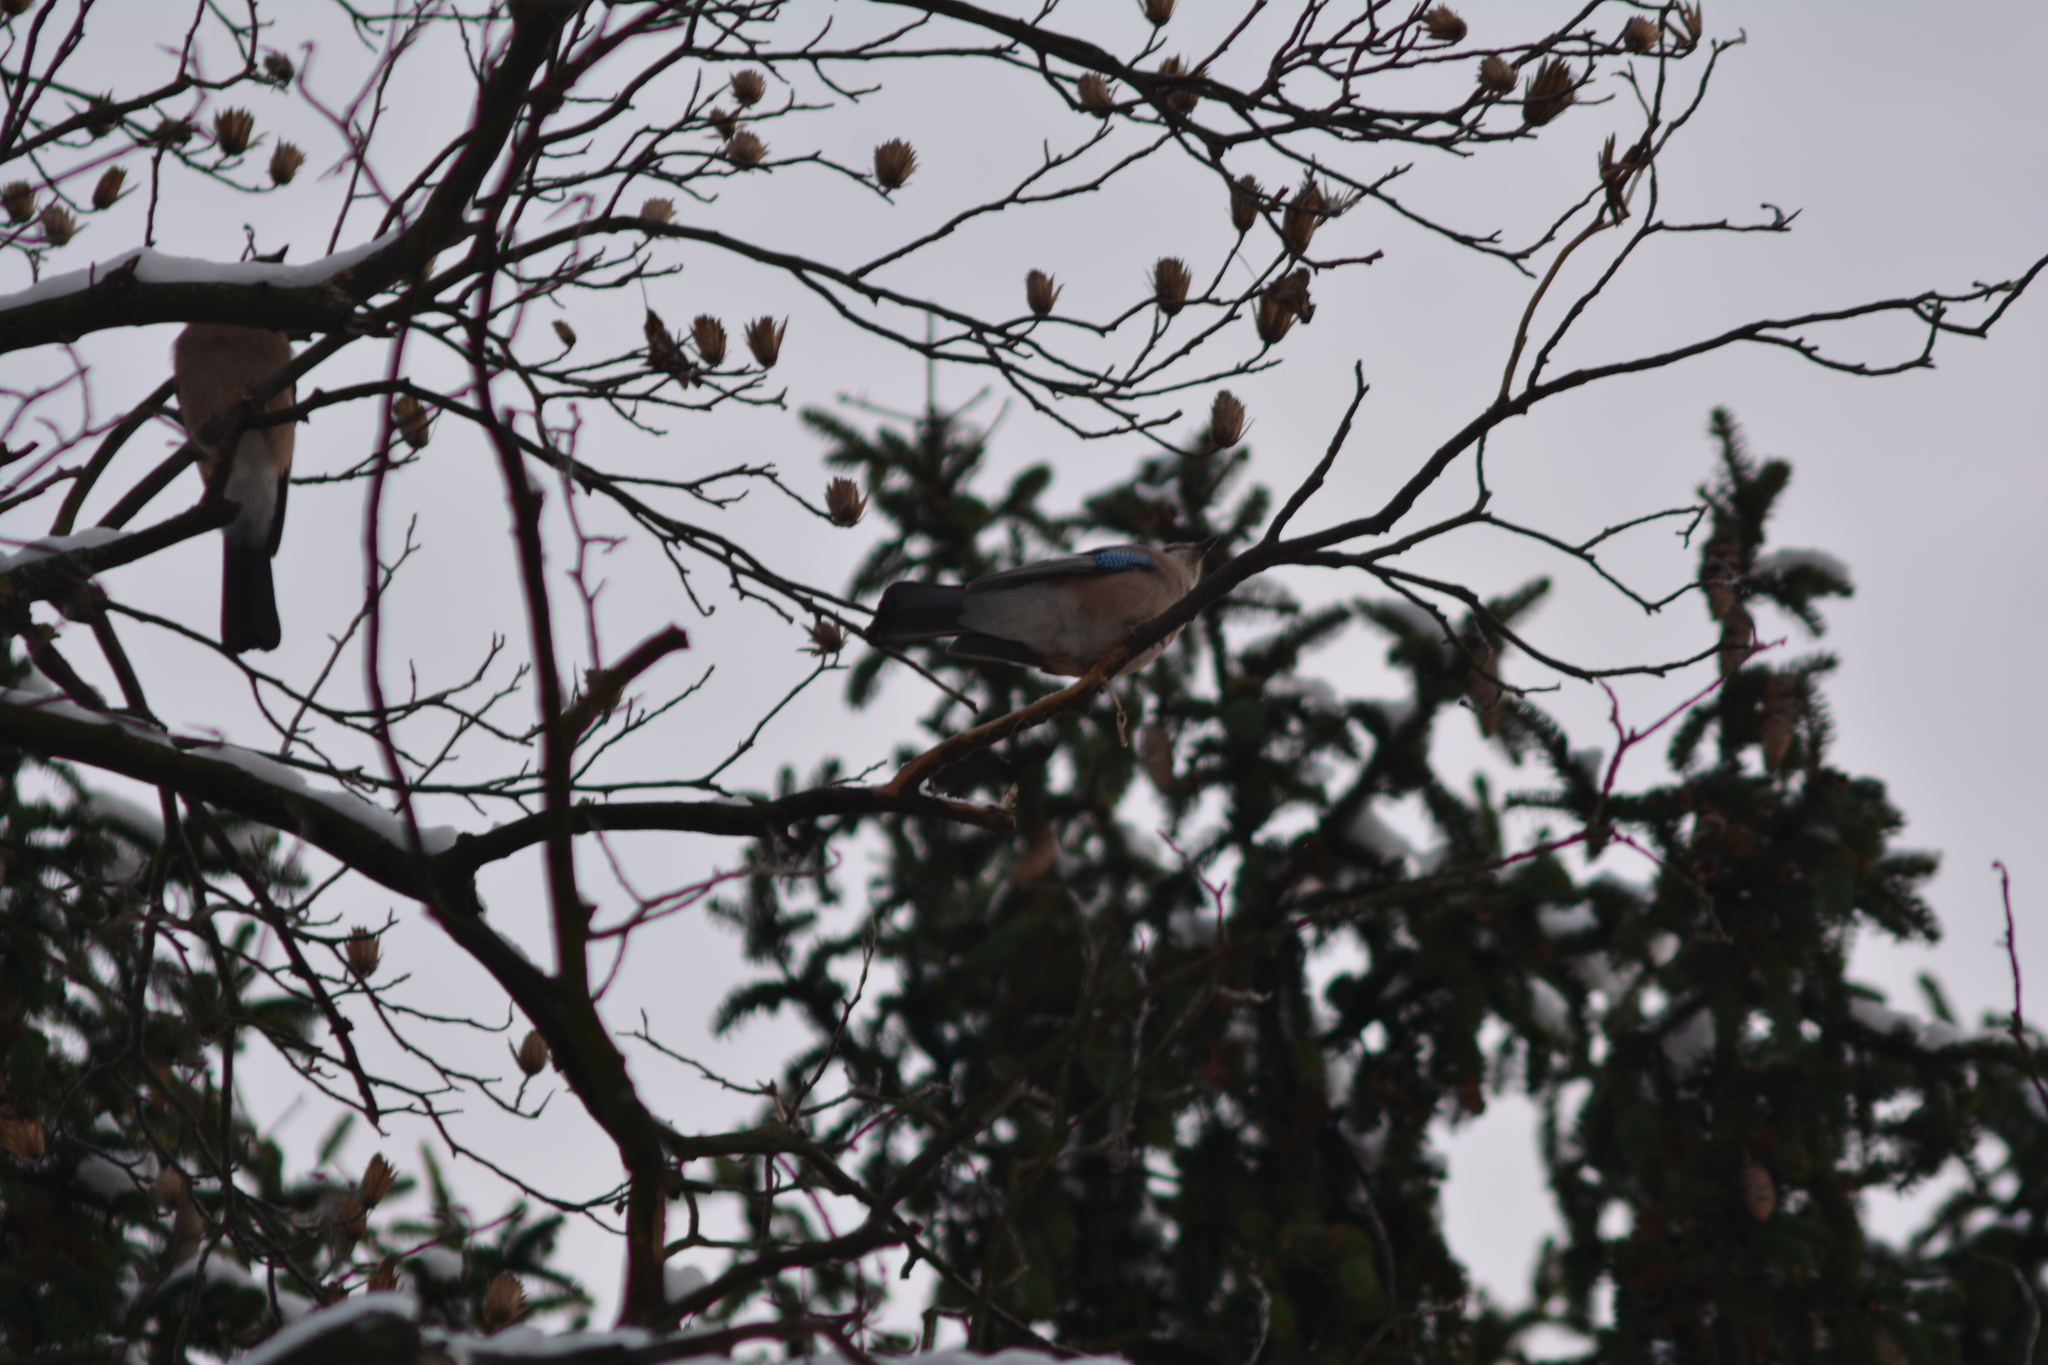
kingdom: Animalia
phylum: Chordata
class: Aves
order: Passeriformes
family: Corvidae
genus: Garrulus
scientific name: Garrulus glandarius
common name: Eurasian jay
